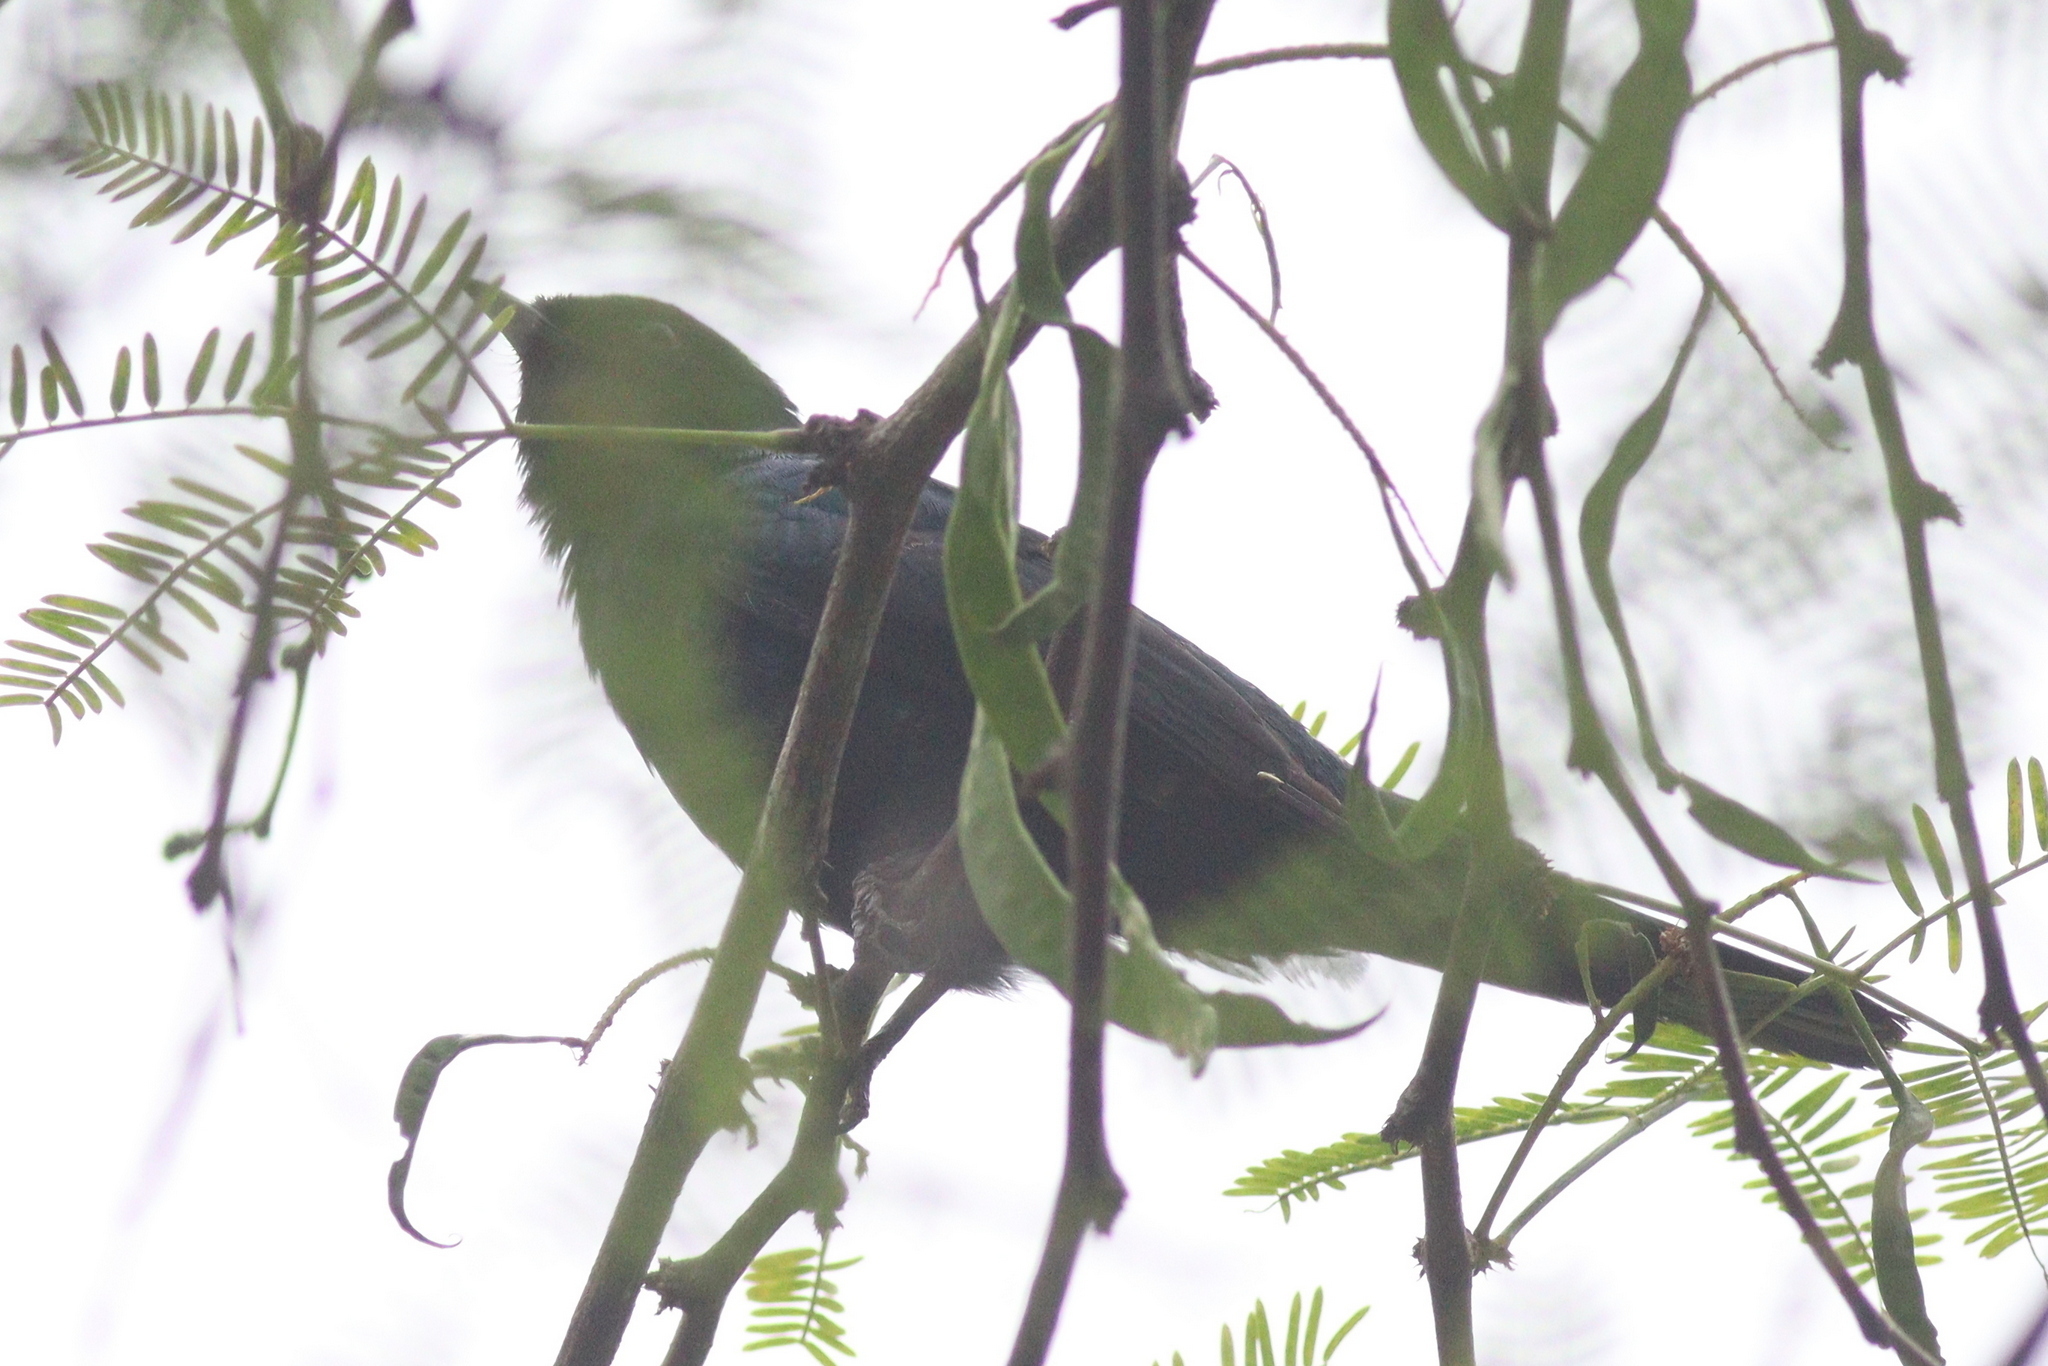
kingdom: Animalia
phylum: Chordata
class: Aves
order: Passeriformes
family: Campephagidae
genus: Campephaga
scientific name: Campephaga flava
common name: Black cuckooshrike
